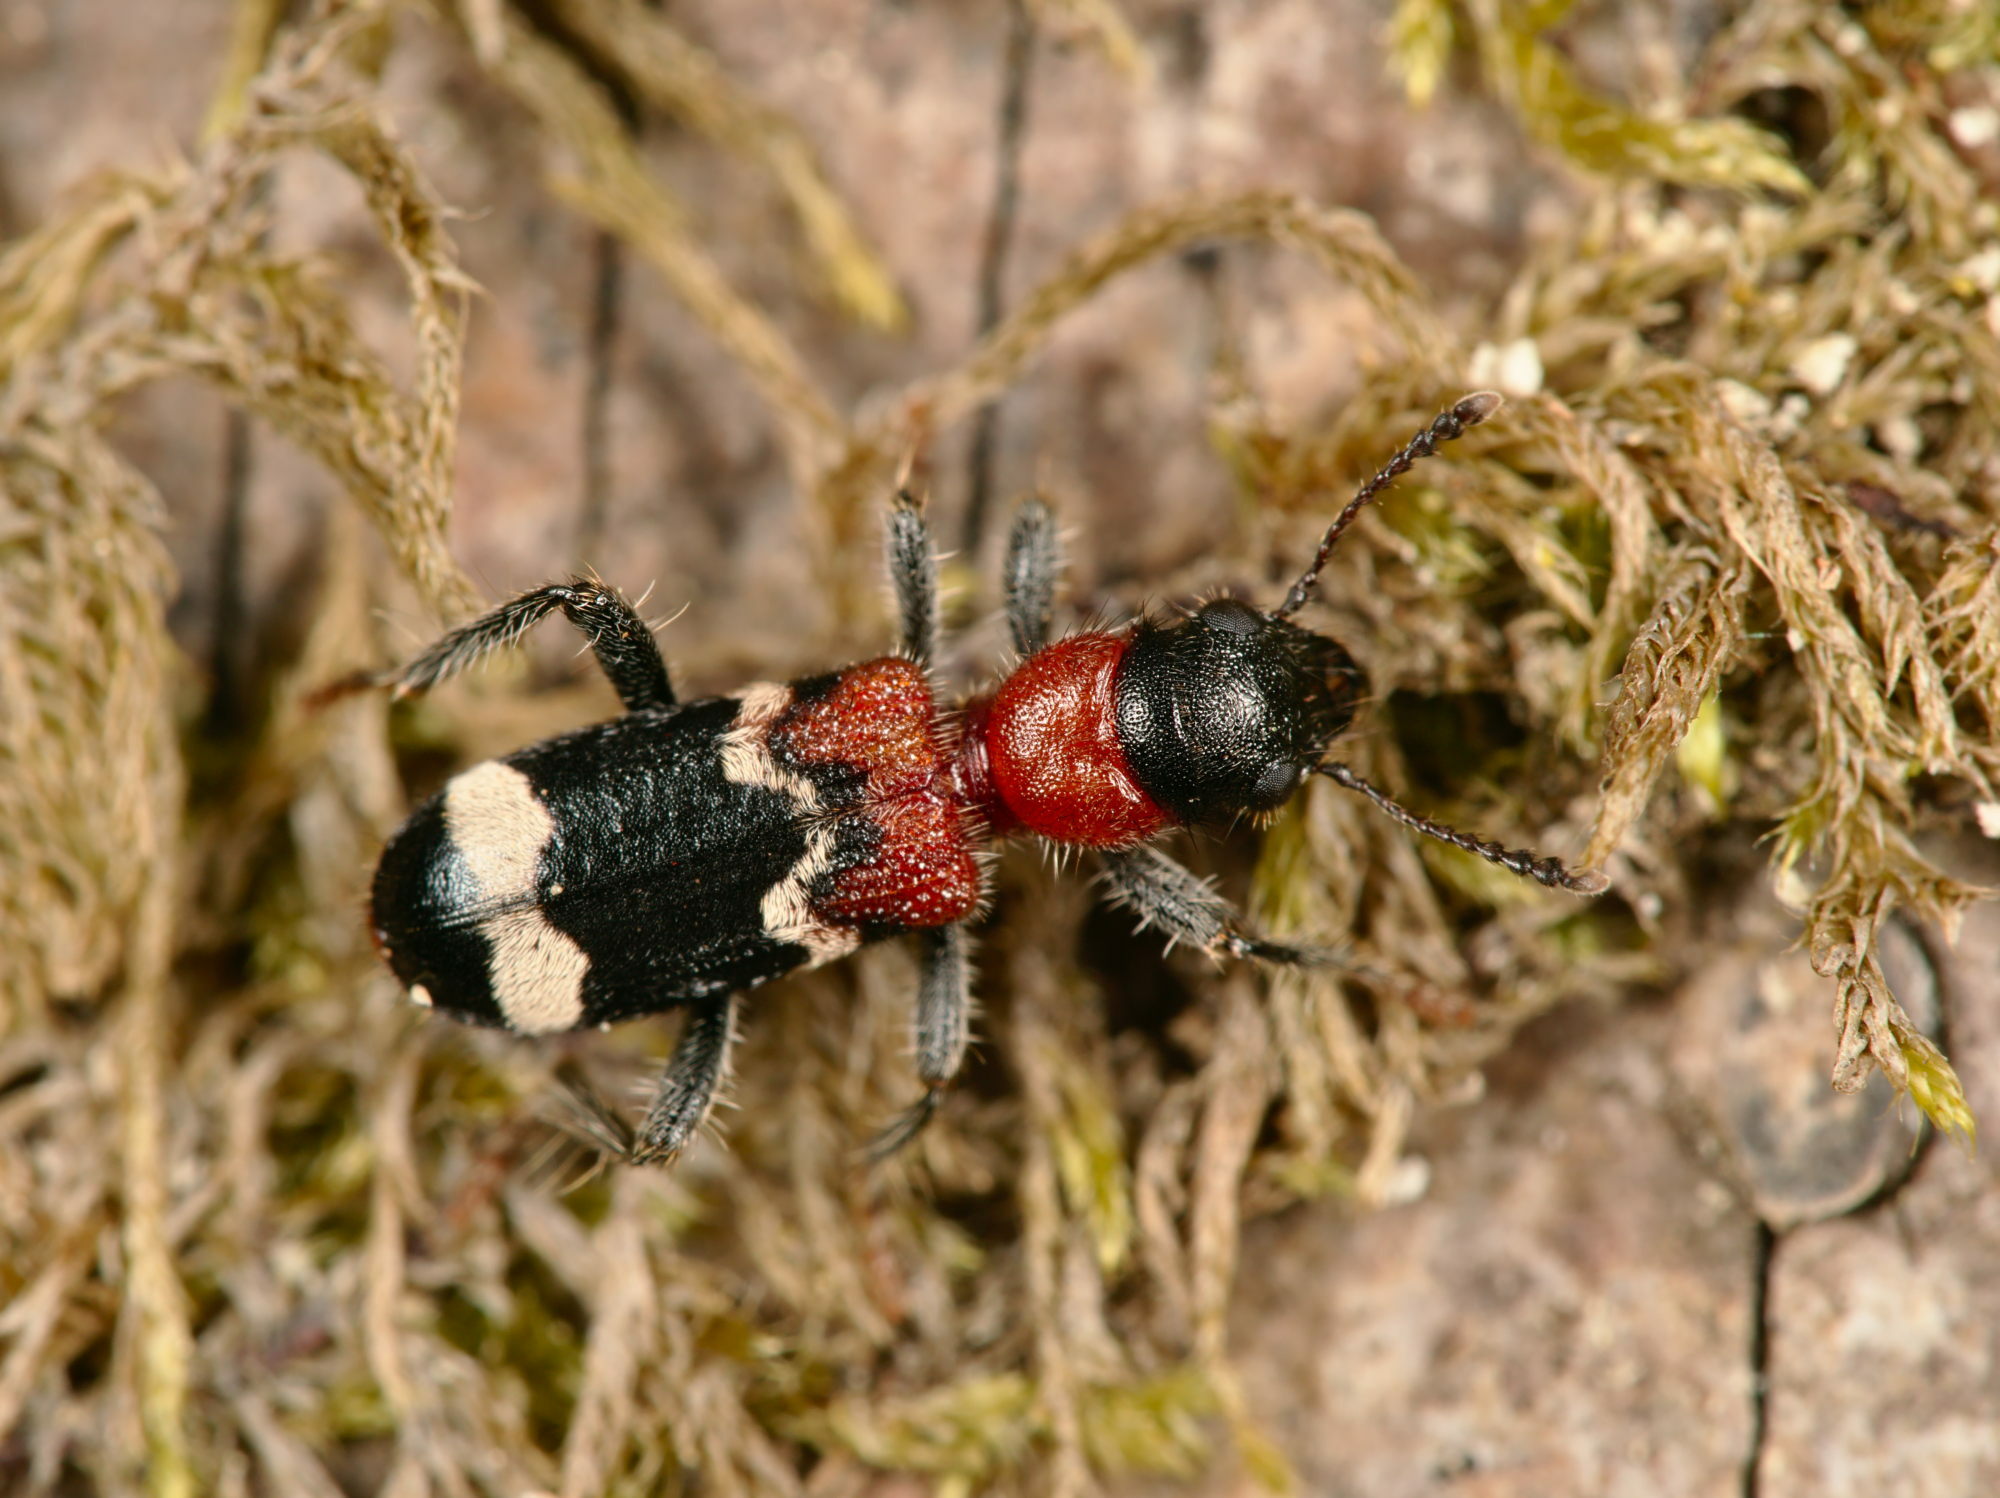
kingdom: Animalia
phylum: Arthropoda
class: Insecta
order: Coleoptera
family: Cleridae
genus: Thanasimus
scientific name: Thanasimus formicarius
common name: Ant beetle
